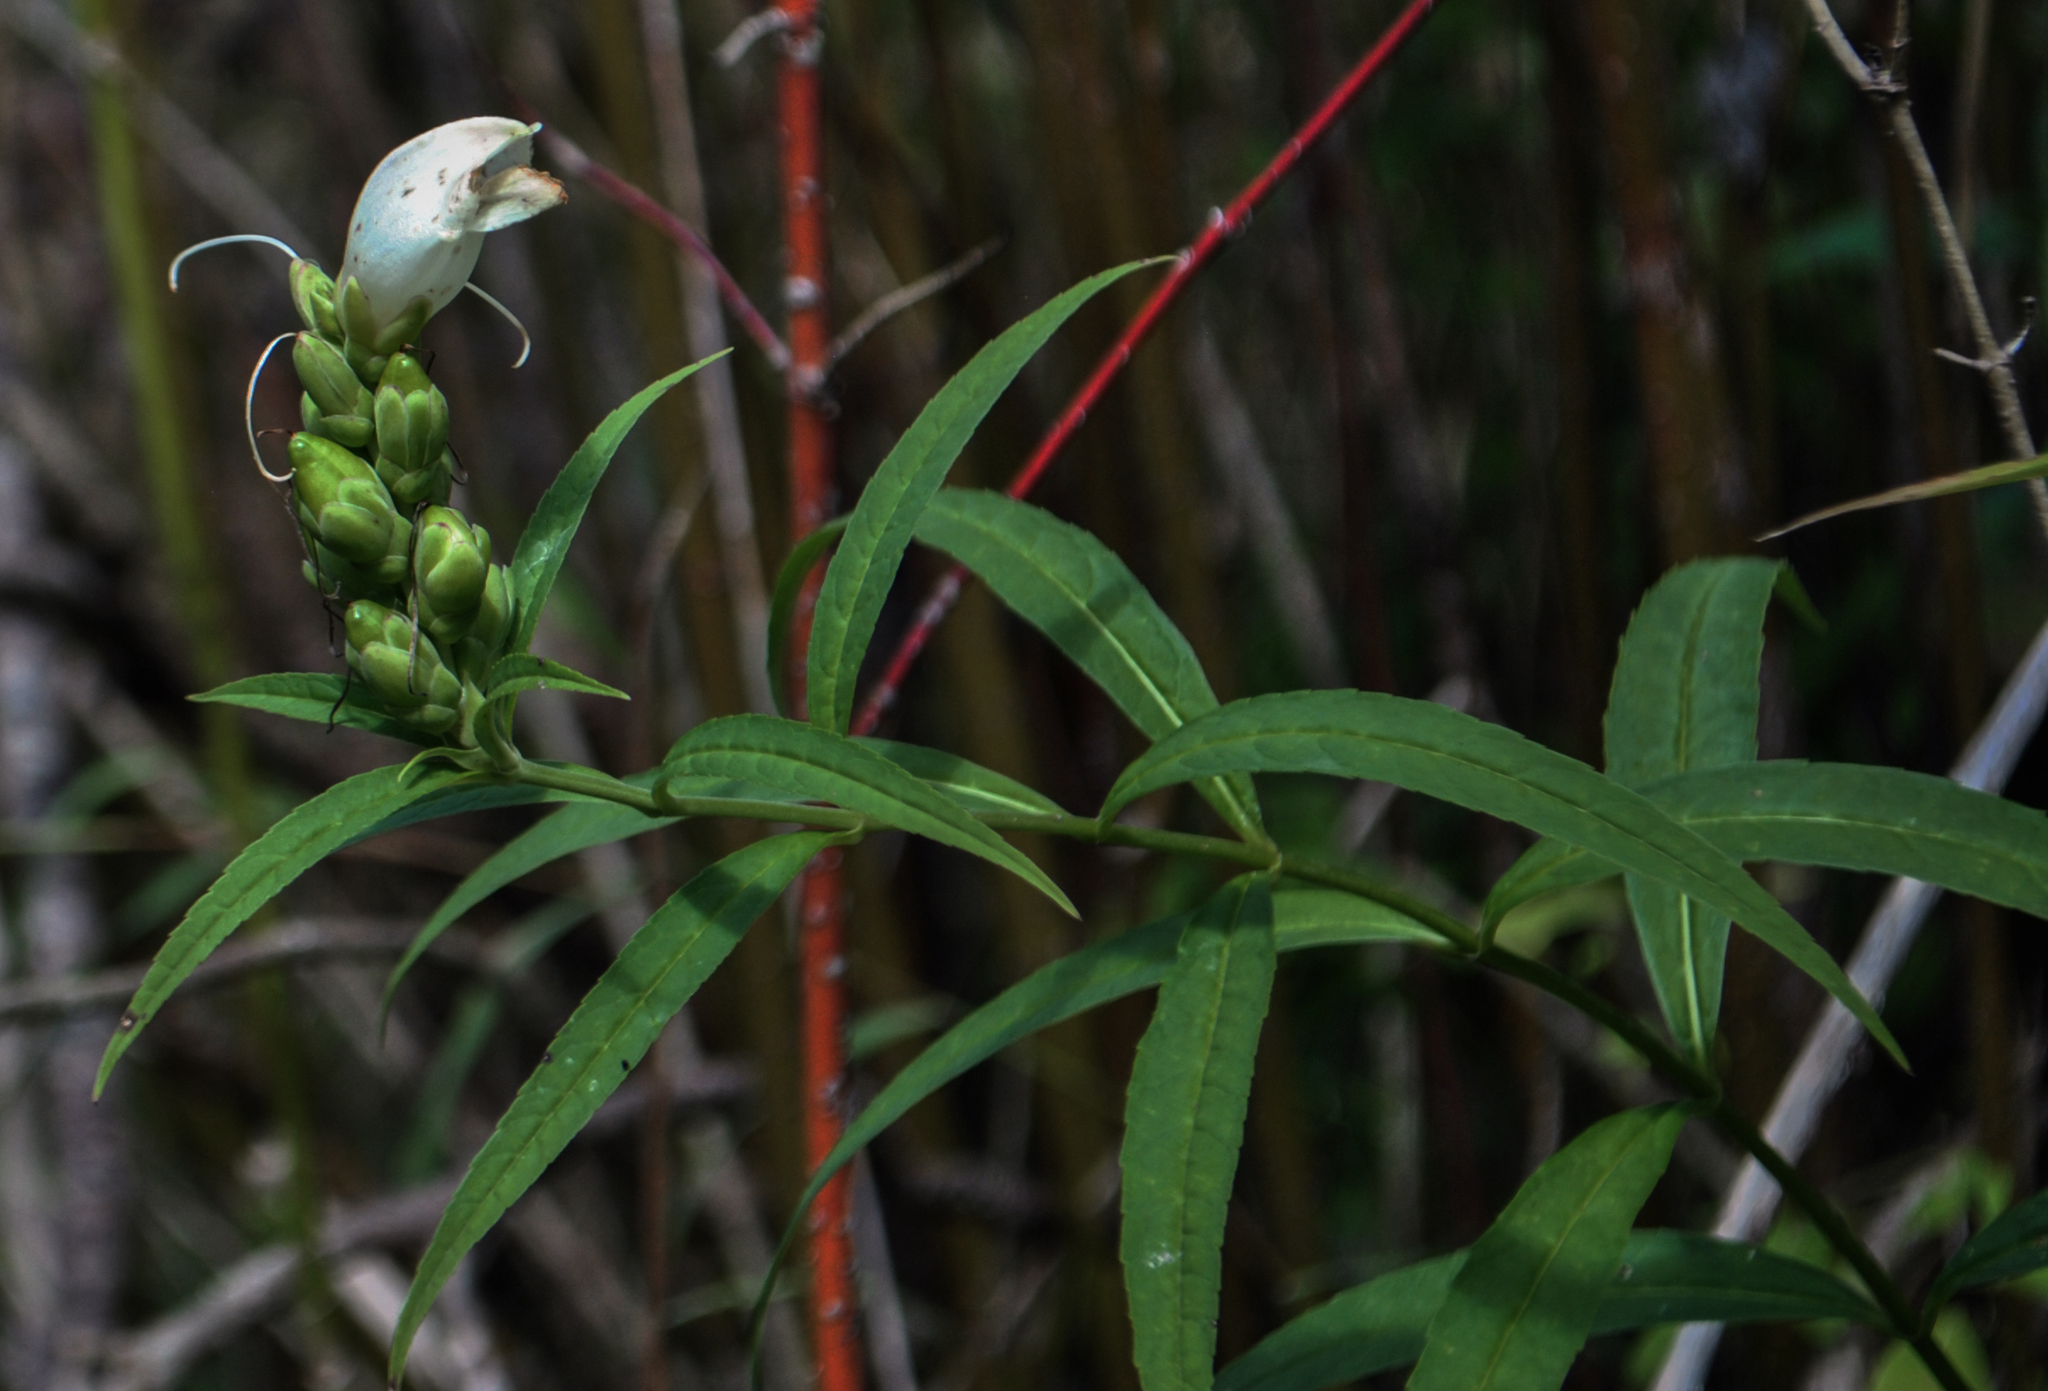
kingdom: Plantae
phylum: Tracheophyta
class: Magnoliopsida
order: Lamiales
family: Plantaginaceae
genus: Chelone
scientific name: Chelone glabra
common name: Snakehead
